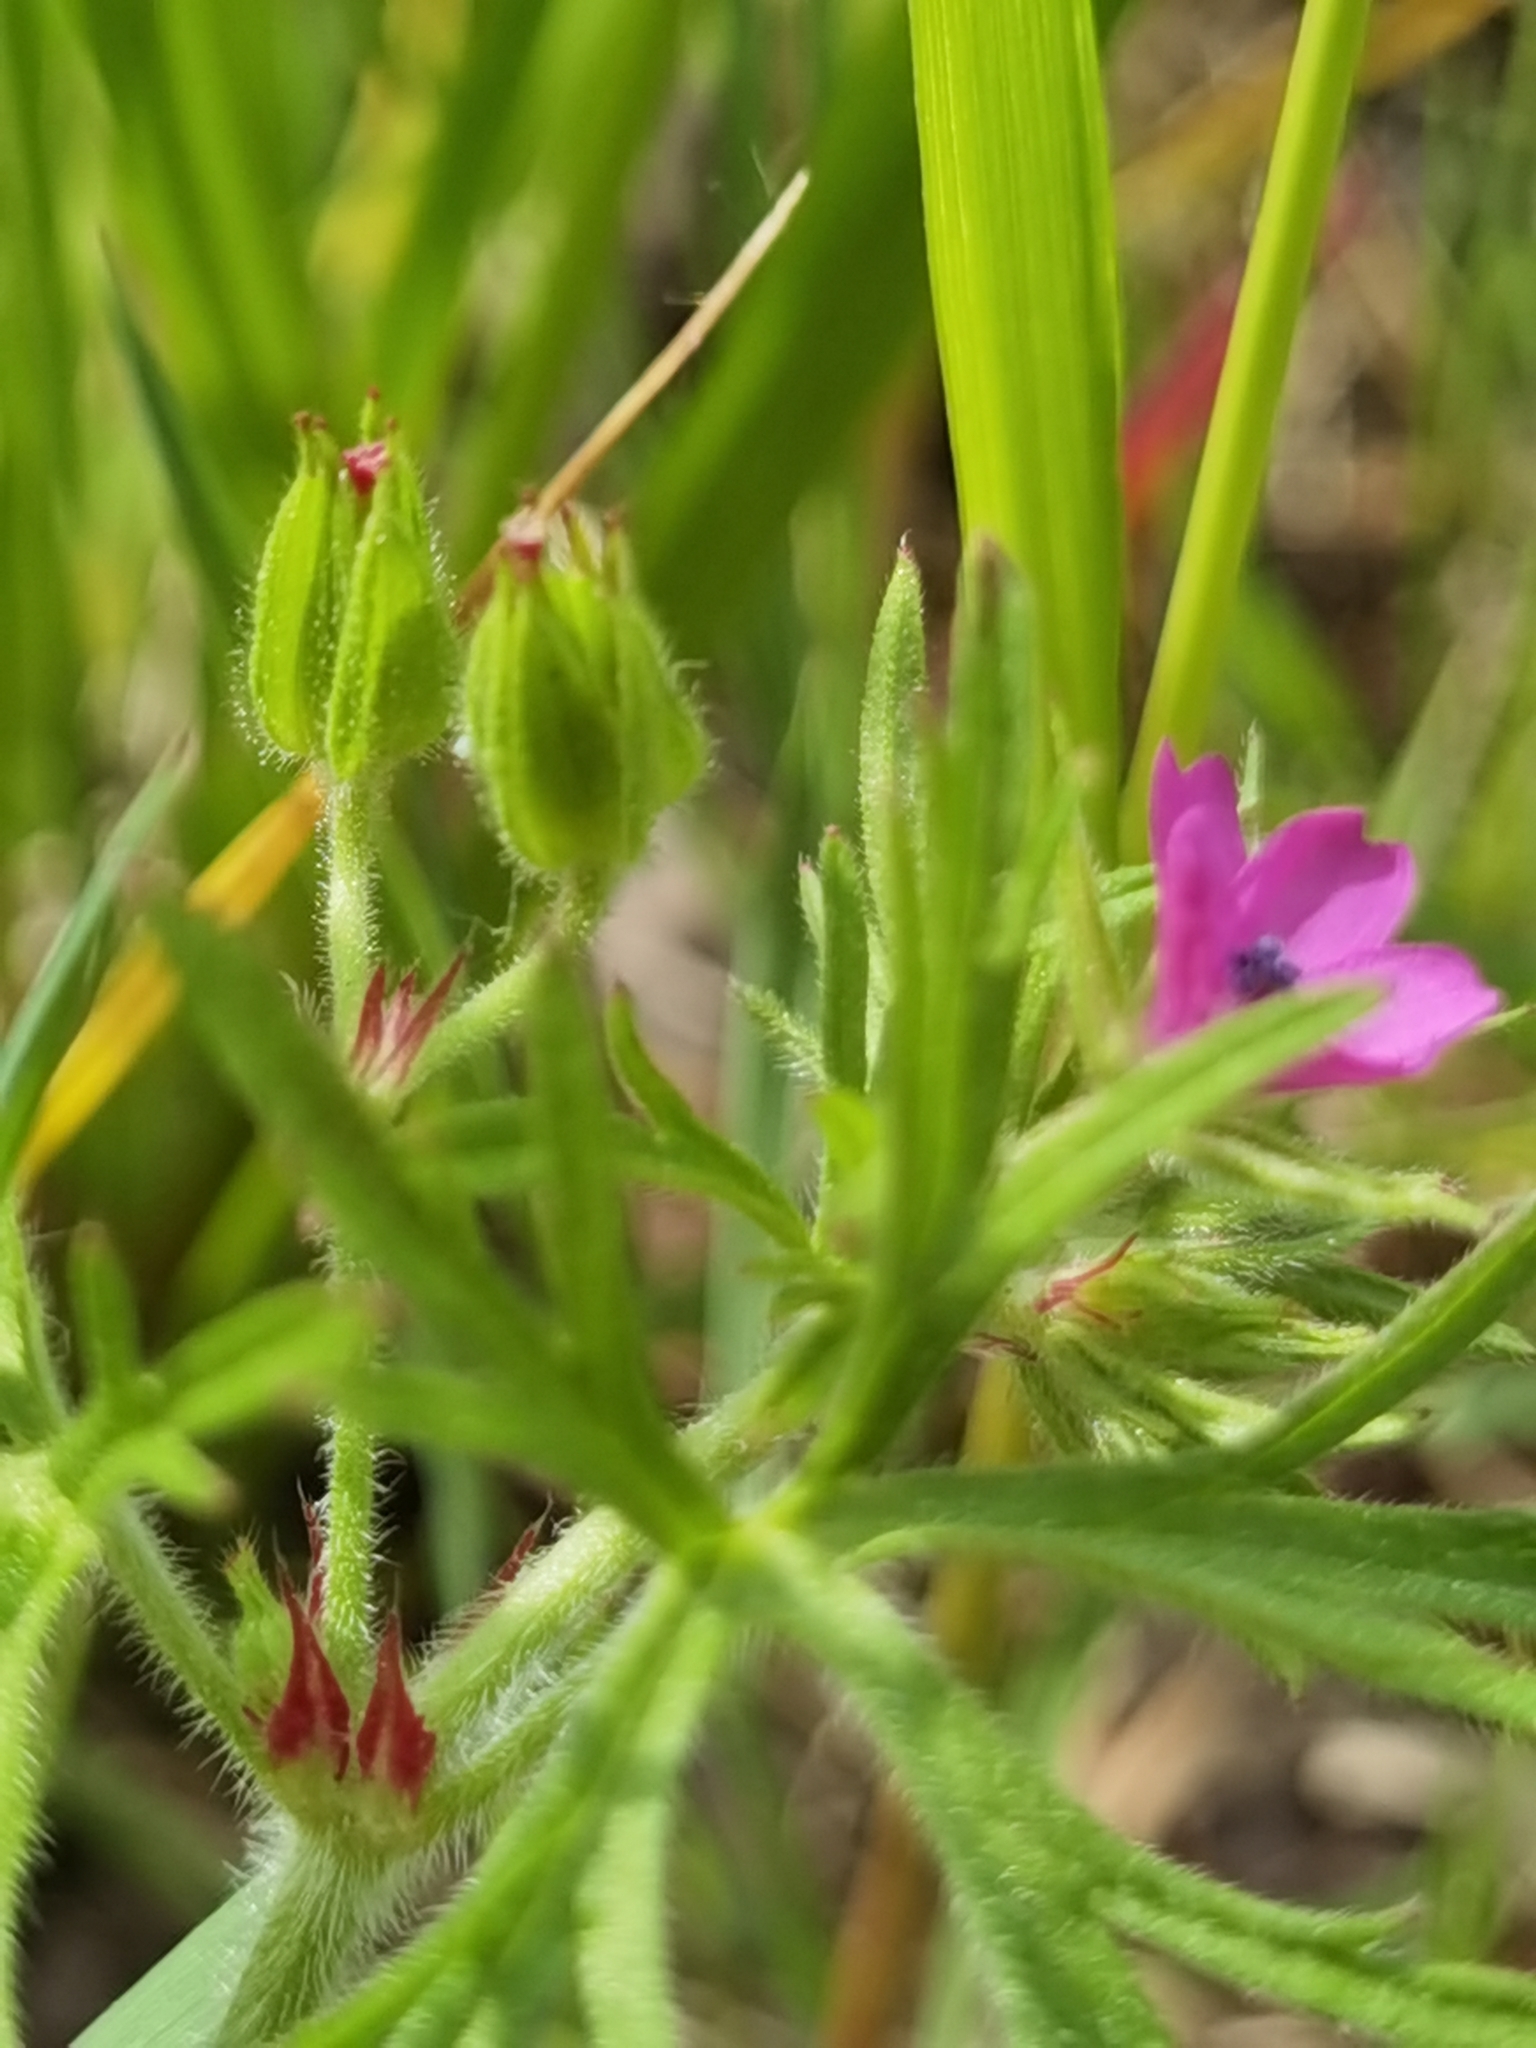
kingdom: Plantae
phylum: Tracheophyta
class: Magnoliopsida
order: Geraniales
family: Geraniaceae
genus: Geranium
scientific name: Geranium dissectum
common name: Cut-leaved crane's-bill
